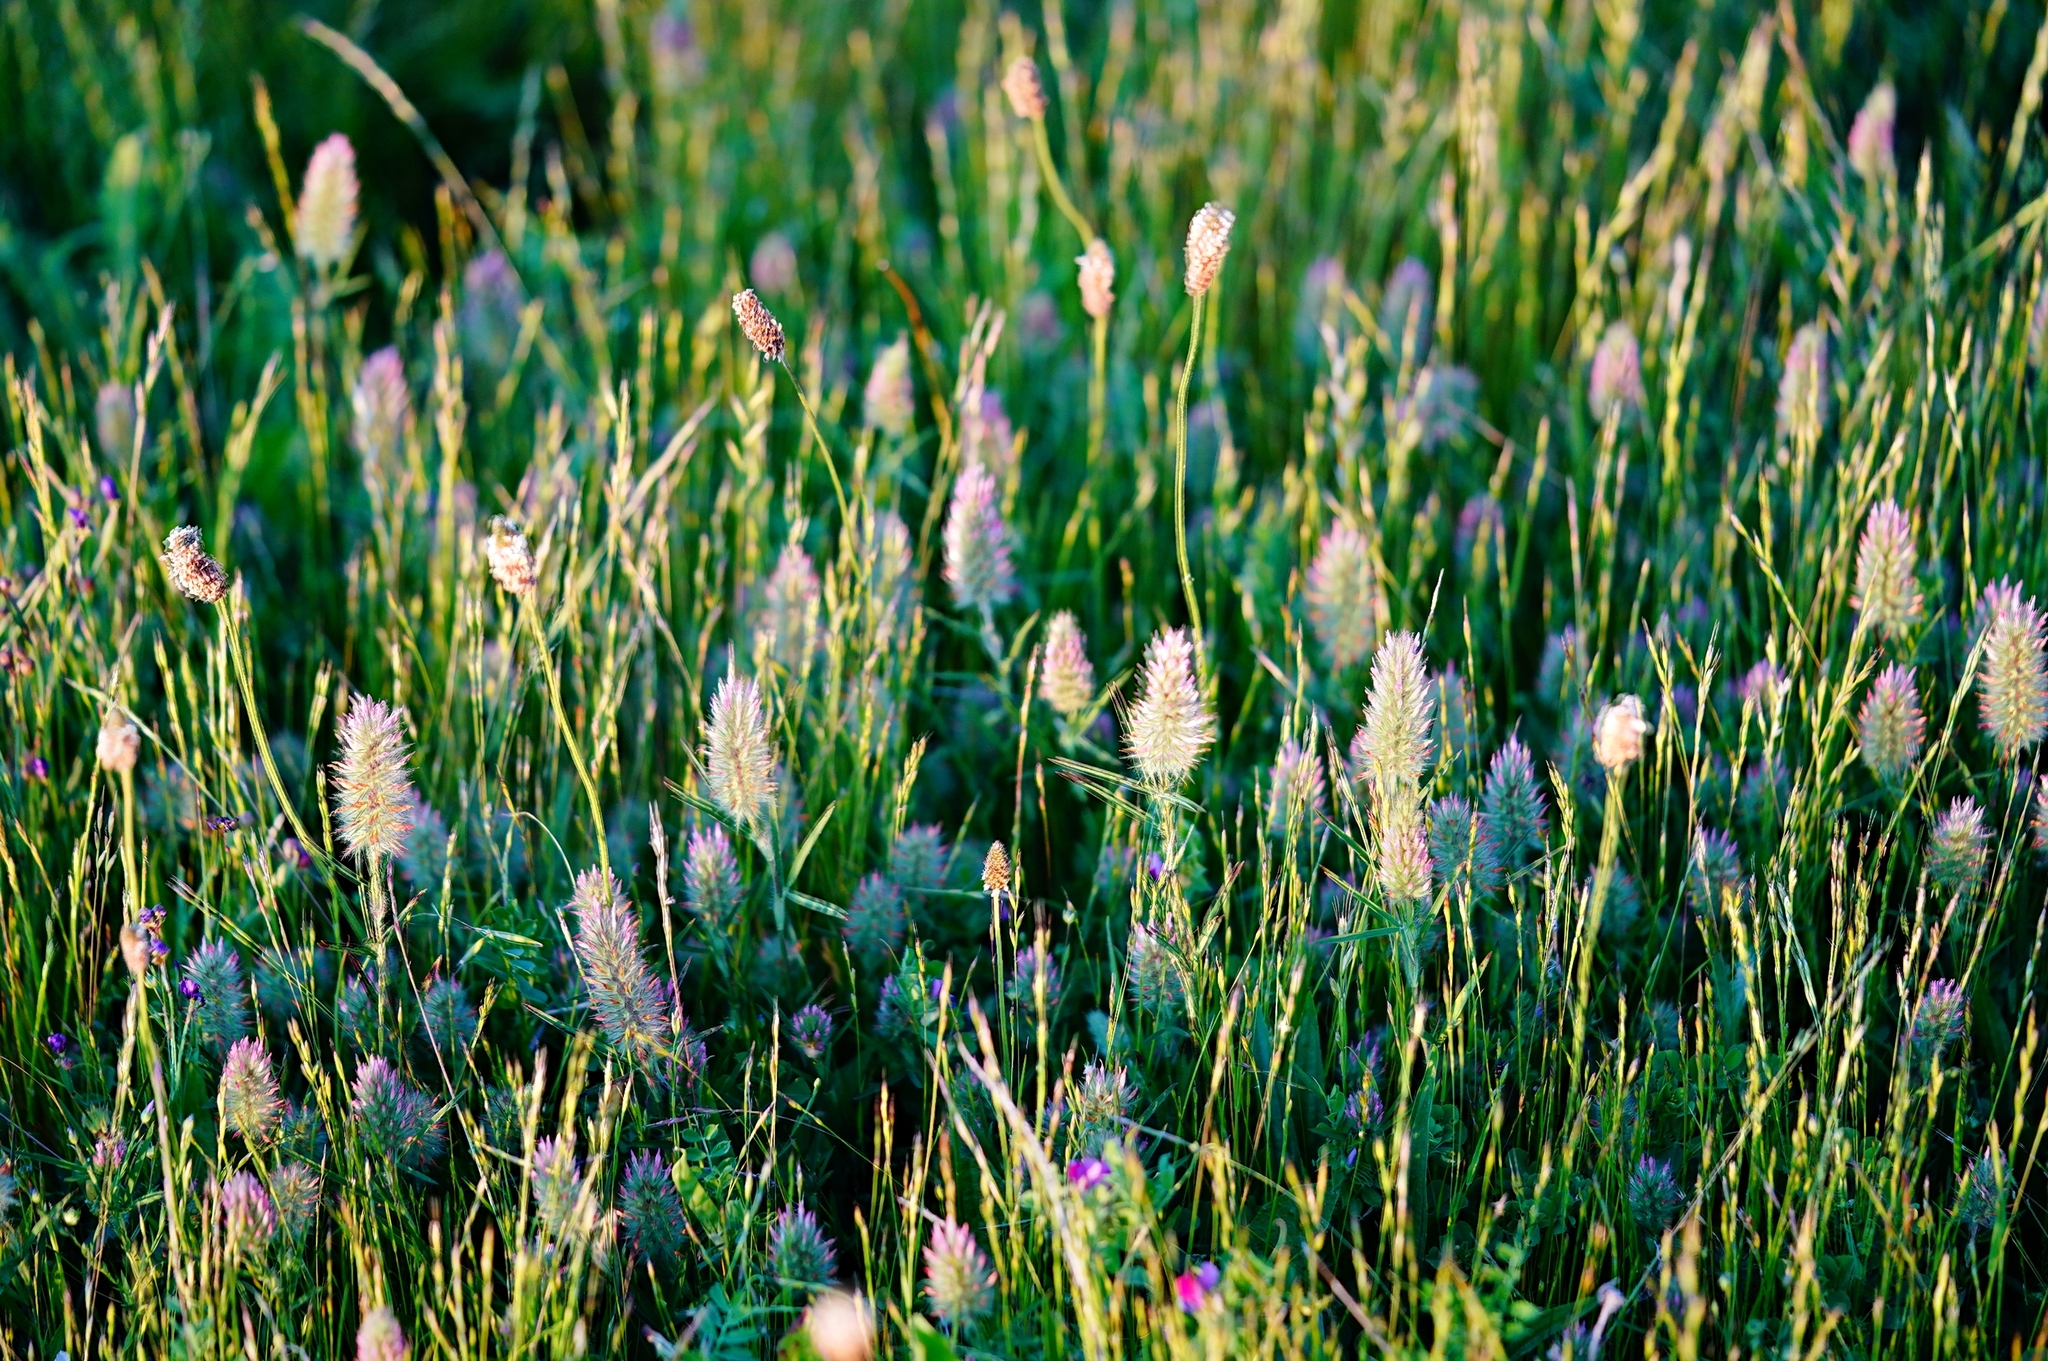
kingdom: Plantae
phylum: Tracheophyta
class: Magnoliopsida
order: Fabales
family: Fabaceae
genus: Trifolium
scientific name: Trifolium angustifolium
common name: Narrow clover
